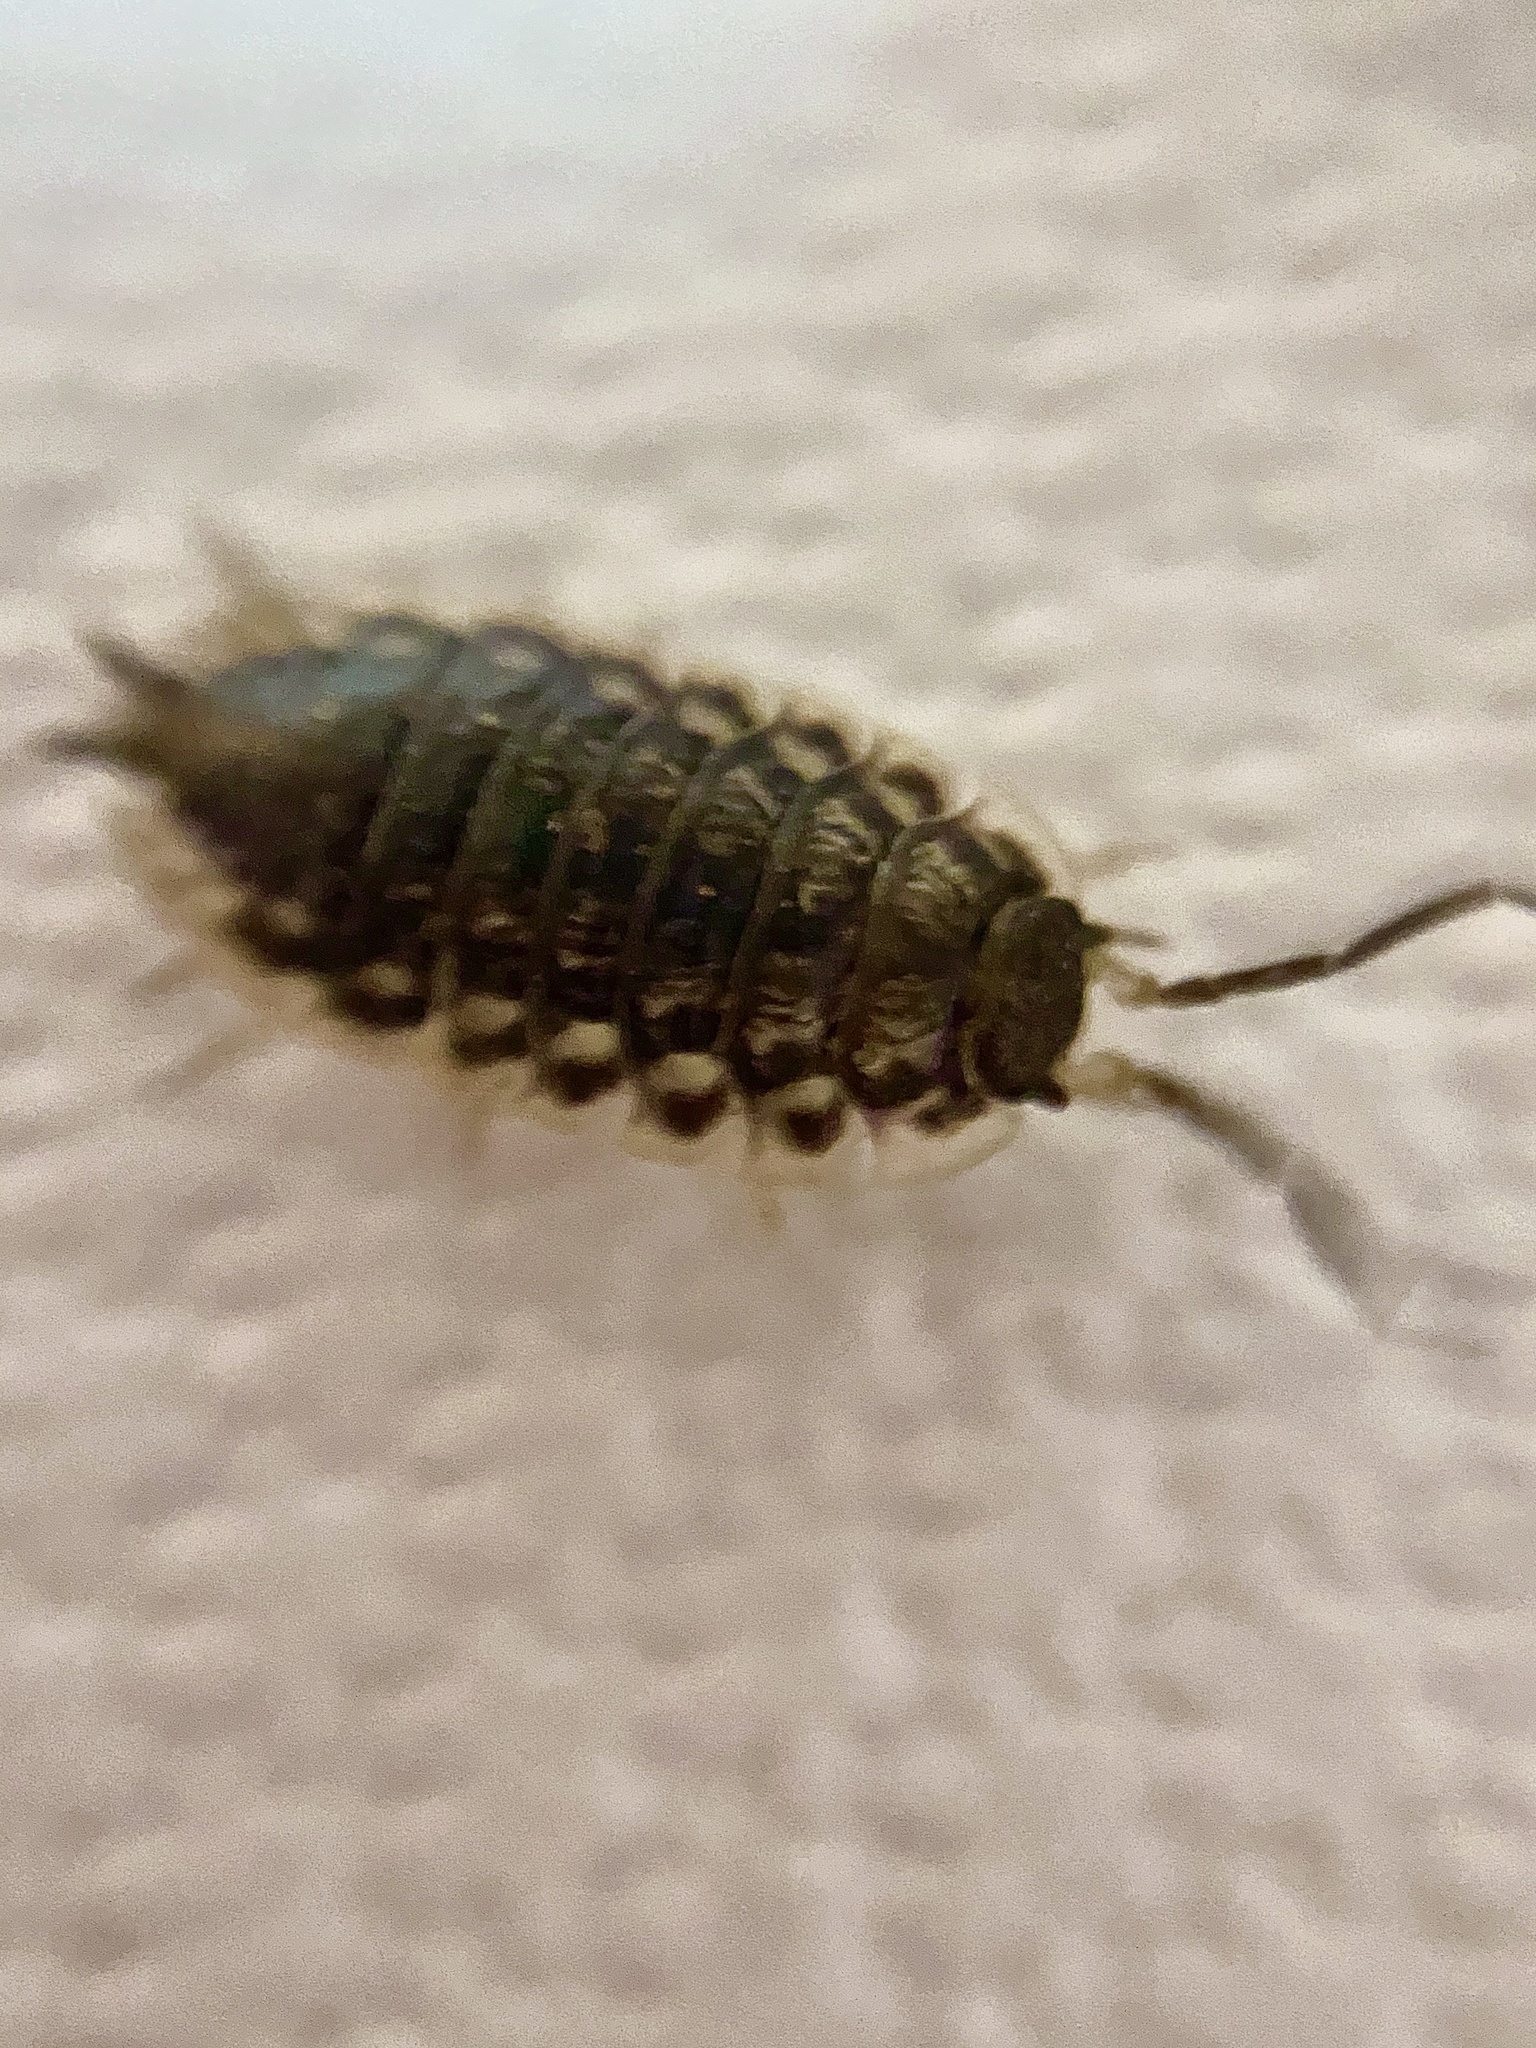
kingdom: Animalia
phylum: Arthropoda
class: Malacostraca
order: Isopoda
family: Oniscidae
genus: Oniscus
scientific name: Oniscus asellus
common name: Common shiny woodlouse
